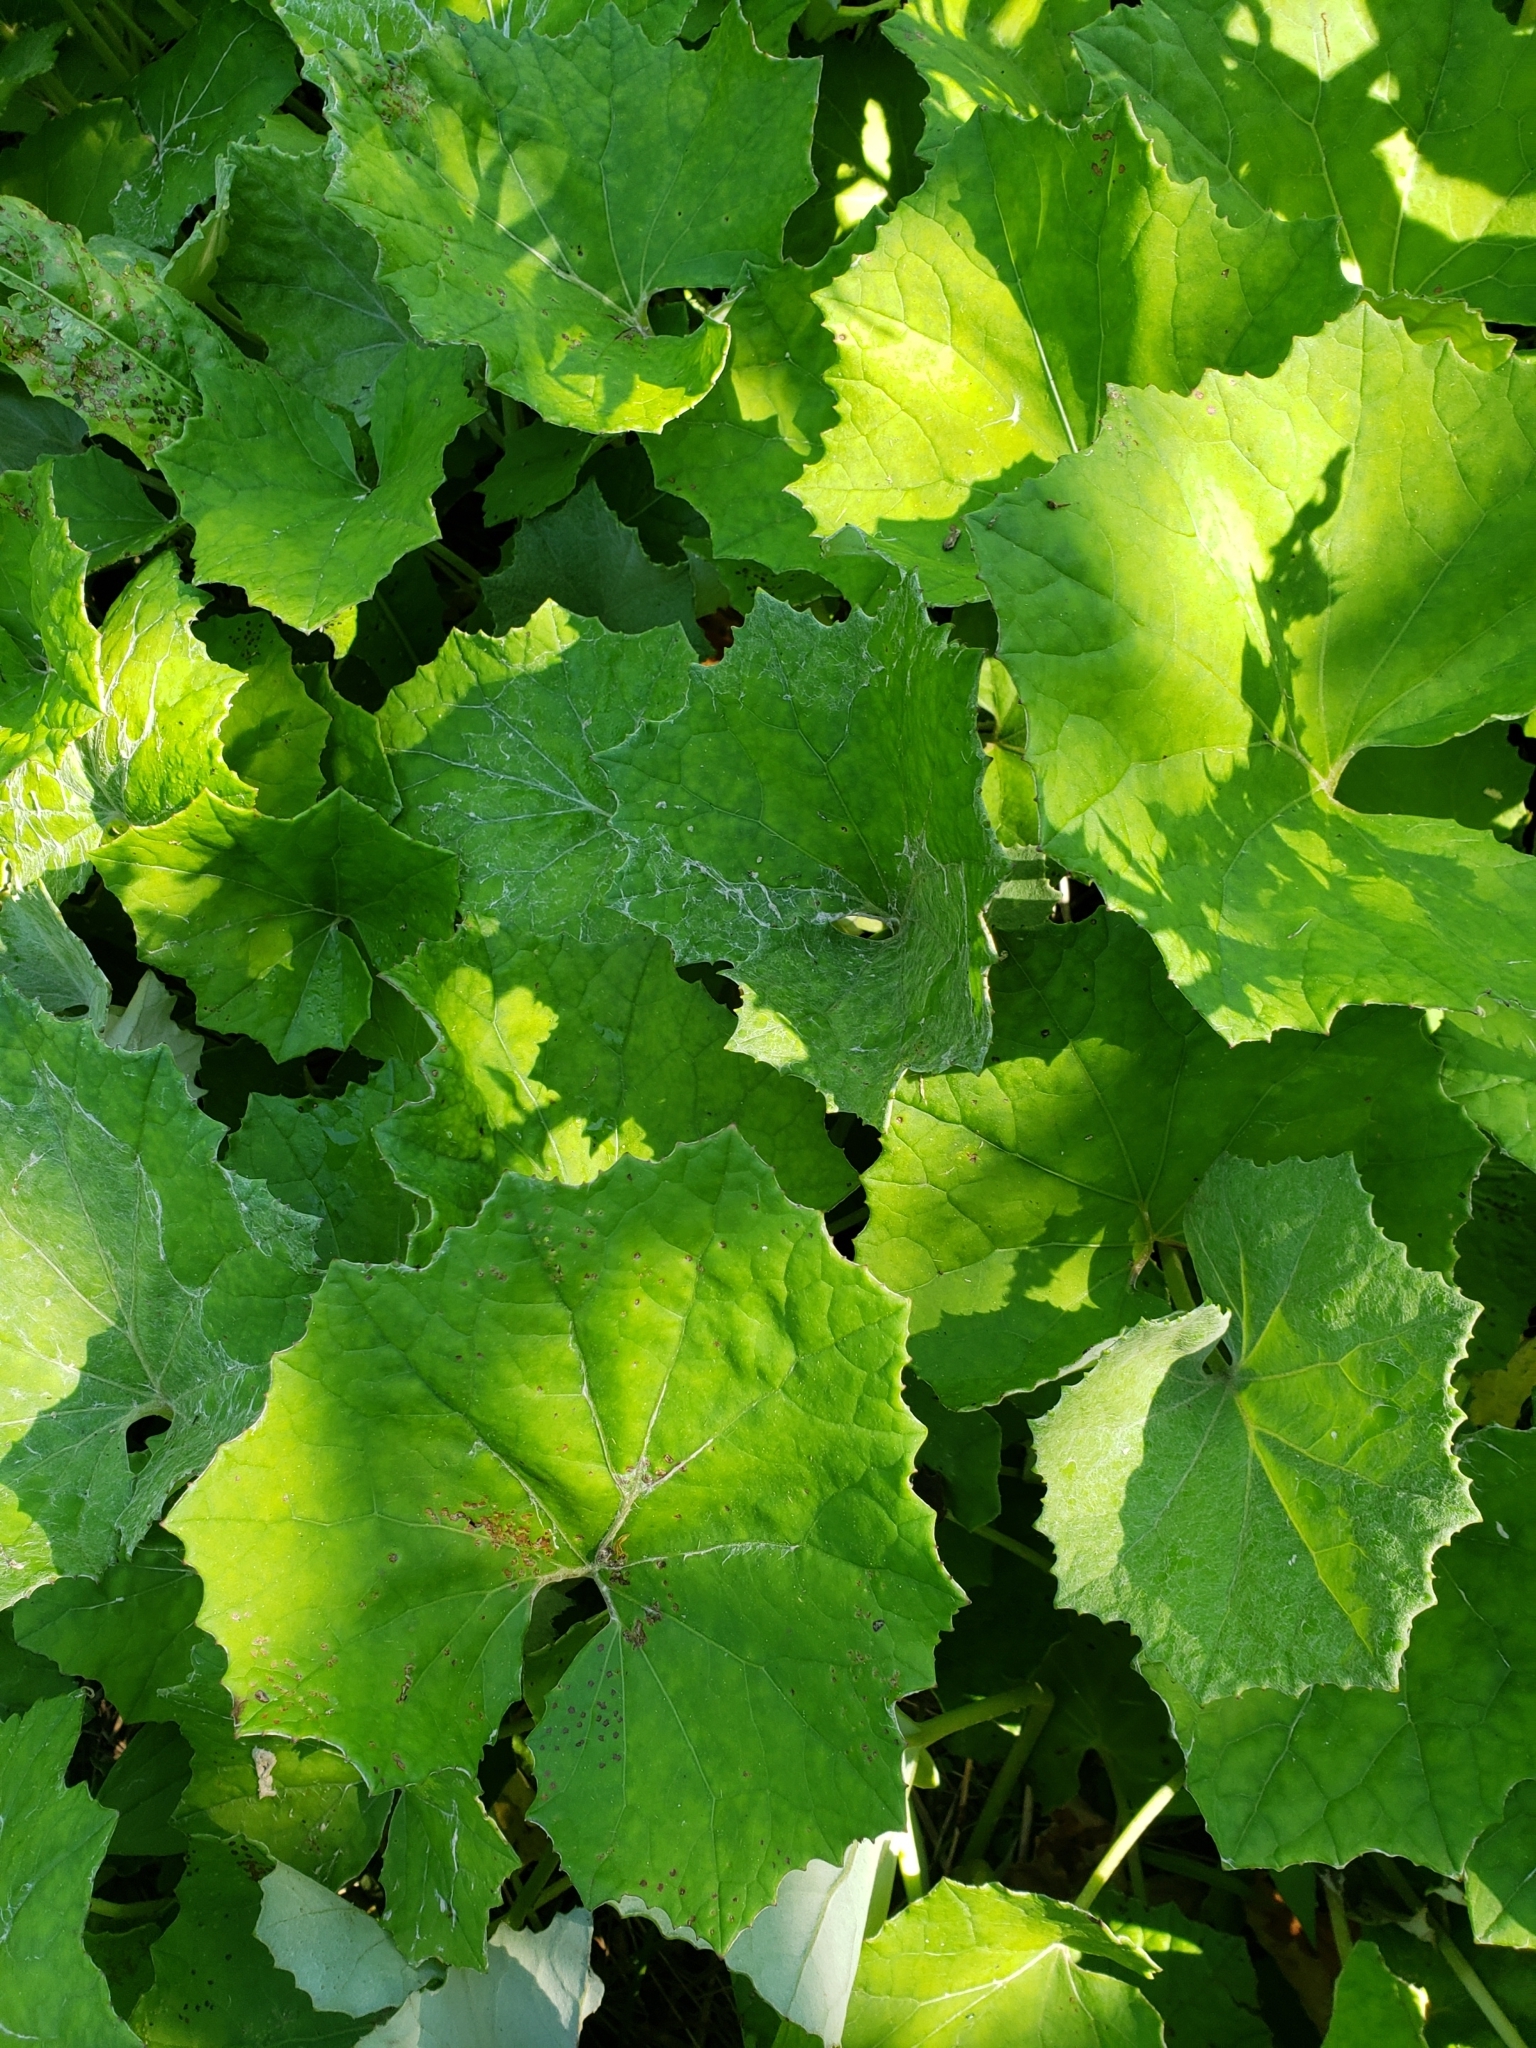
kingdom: Plantae
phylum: Tracheophyta
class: Magnoliopsida
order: Asterales
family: Asteraceae
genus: Tussilago
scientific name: Tussilago farfara
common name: Coltsfoot
